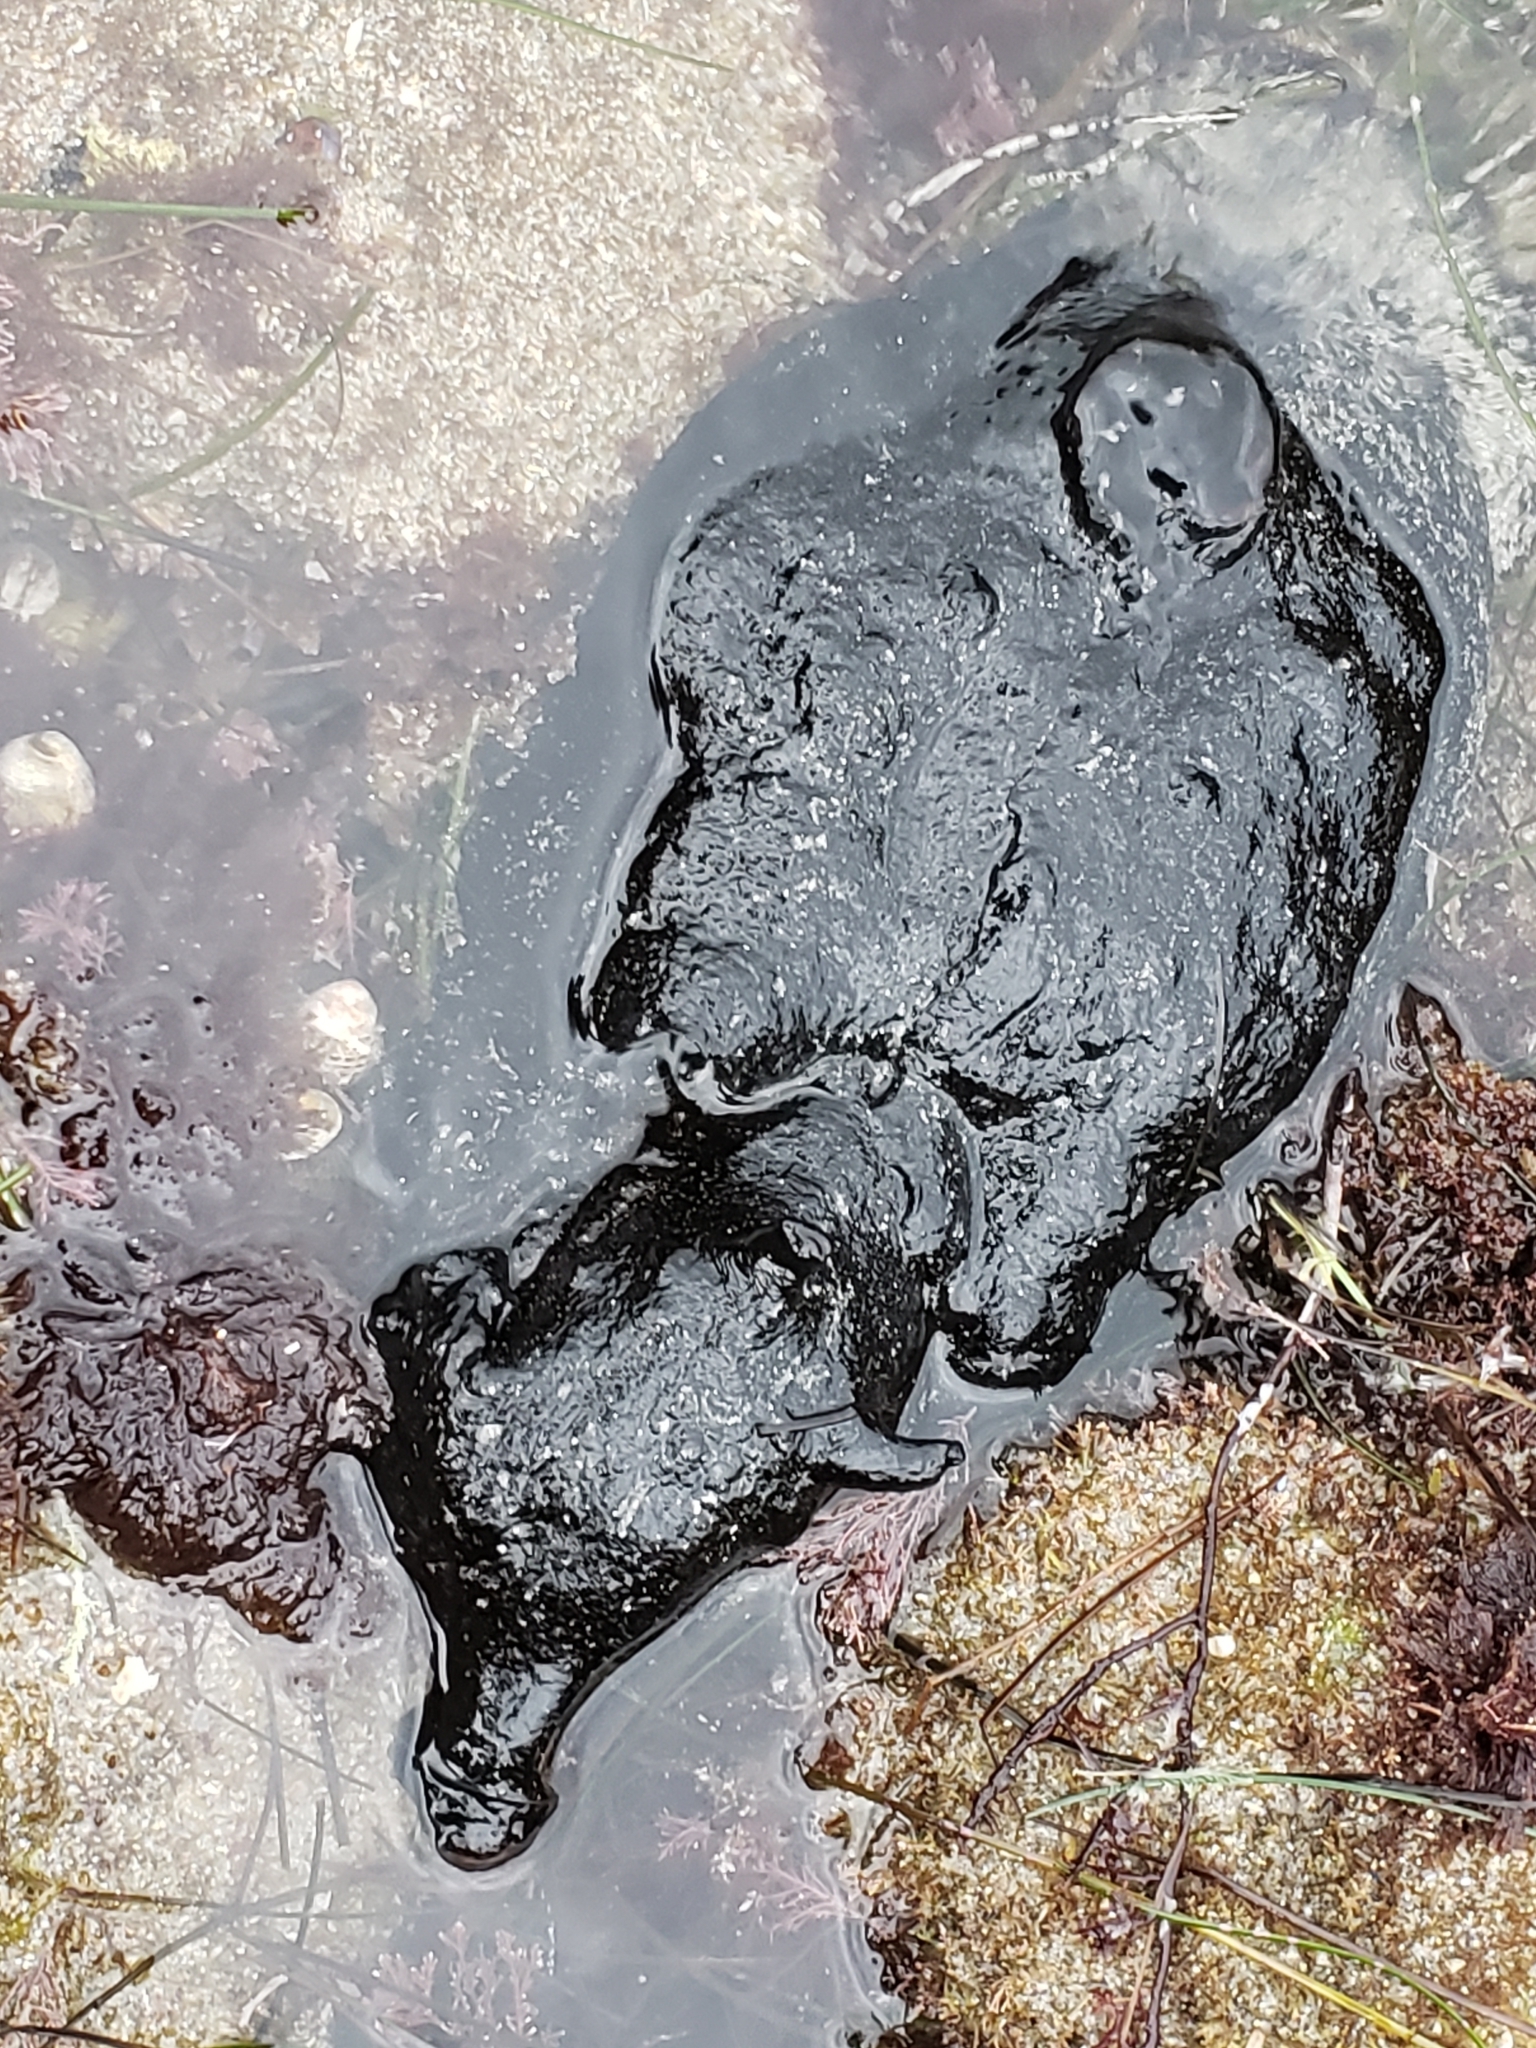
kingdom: Animalia
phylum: Mollusca
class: Gastropoda
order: Aplysiida
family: Aplysiidae
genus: Aplysia
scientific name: Aplysia vaccaria
